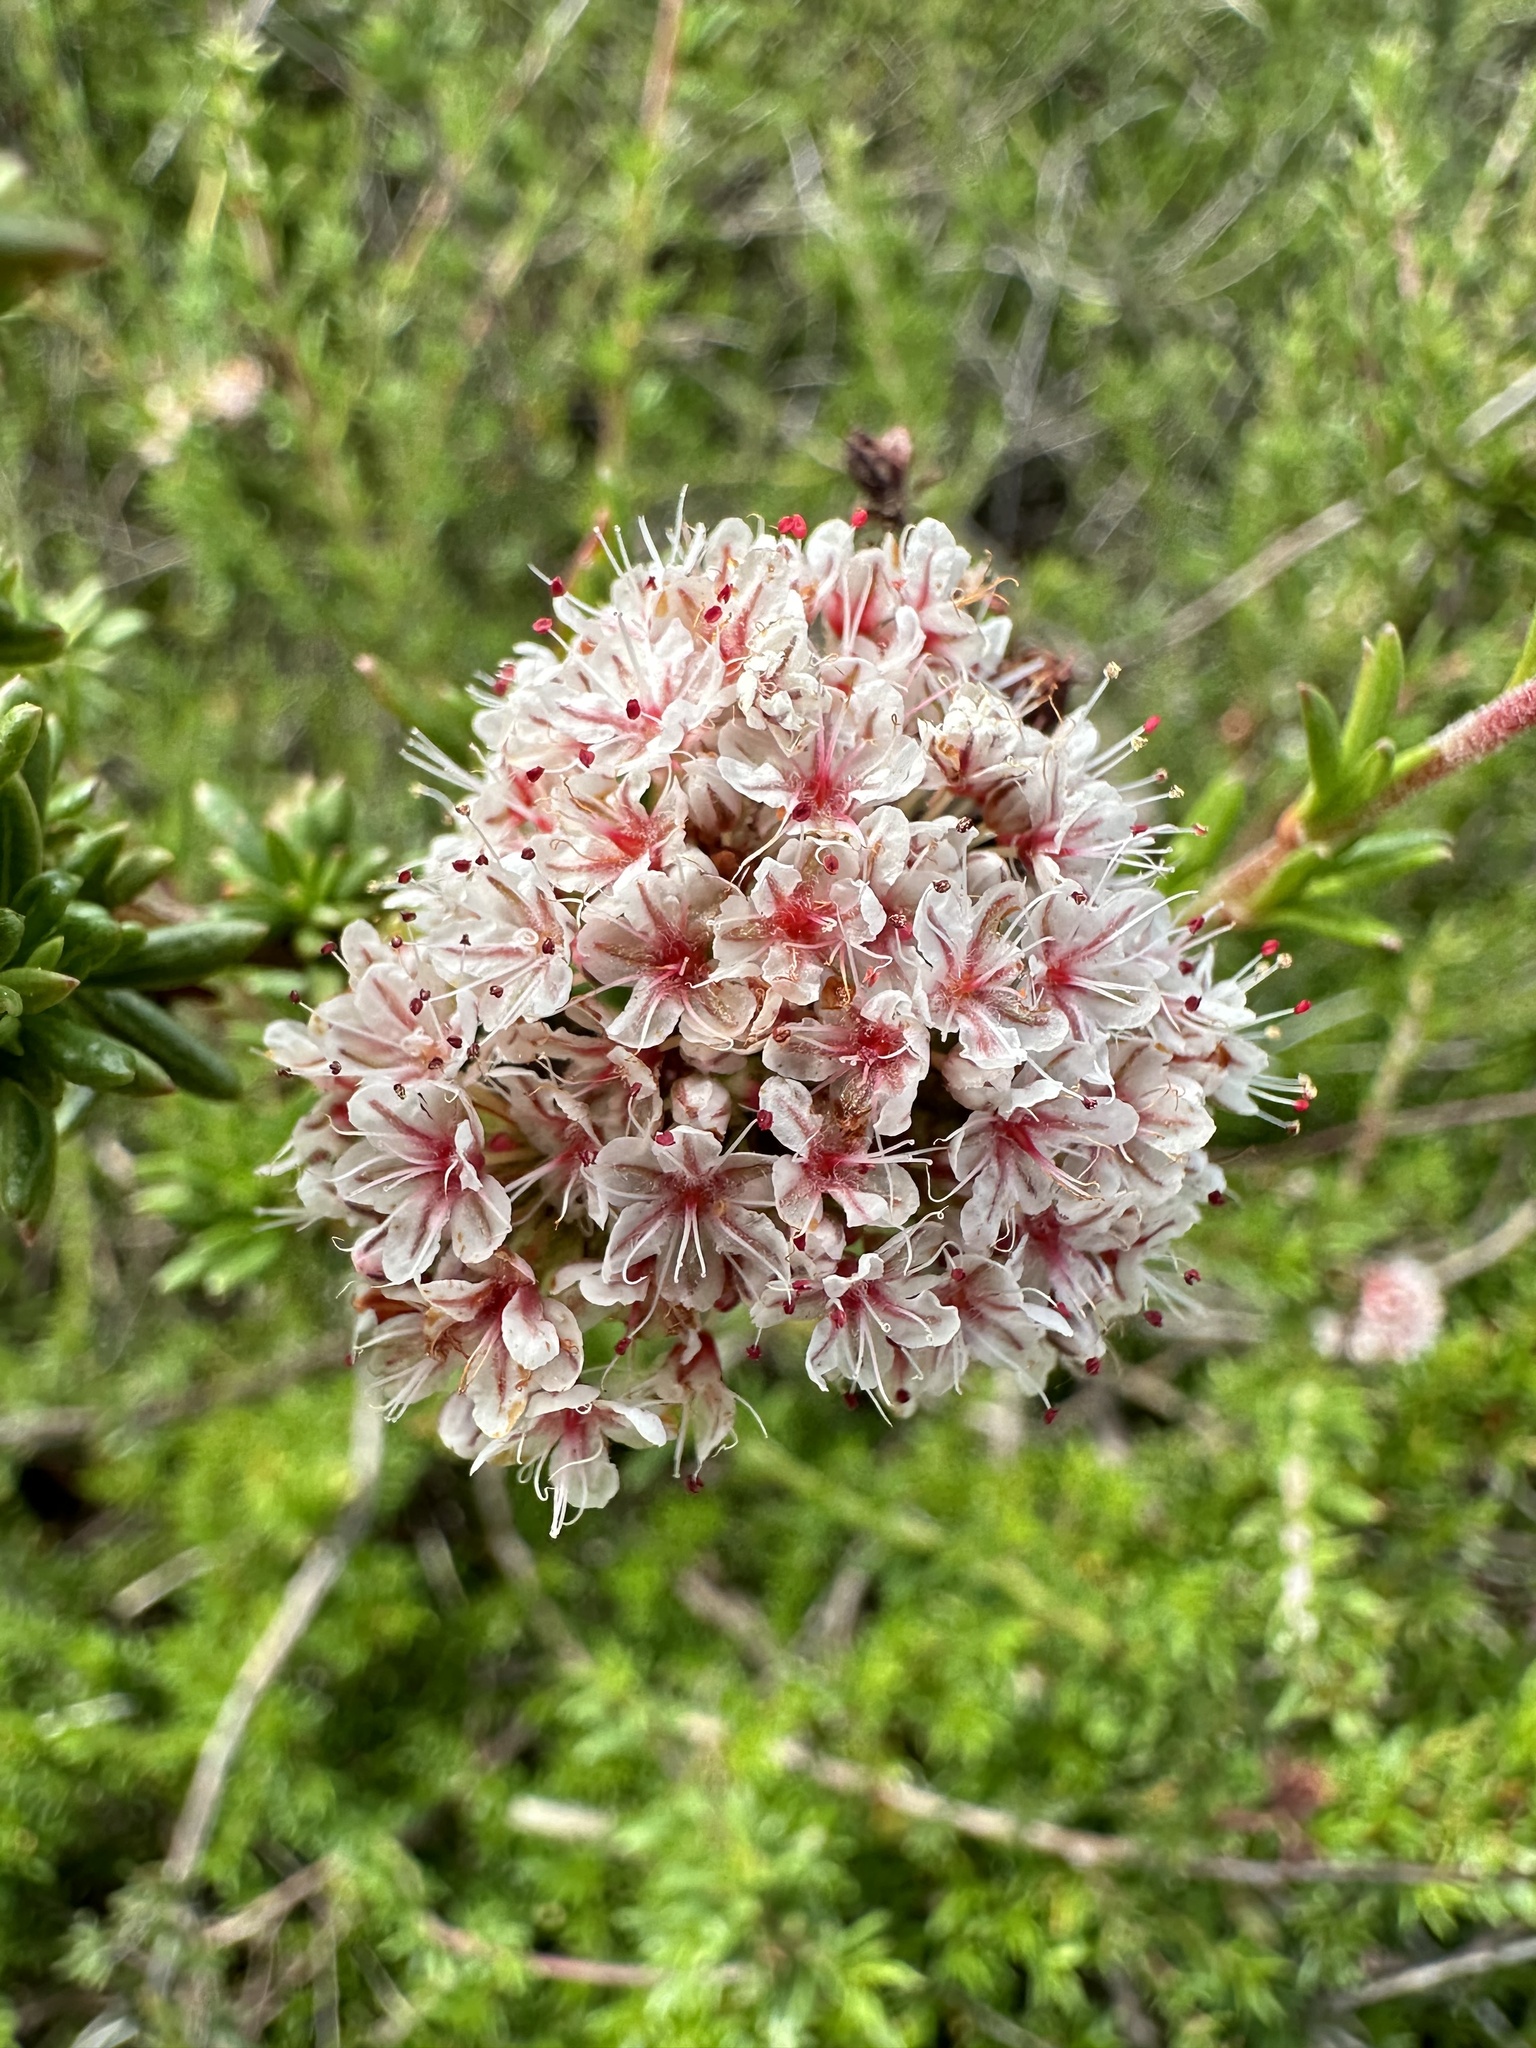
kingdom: Plantae
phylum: Tracheophyta
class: Magnoliopsida
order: Caryophyllales
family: Polygonaceae
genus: Eriogonum
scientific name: Eriogonum fasciculatum
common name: California wild buckwheat
